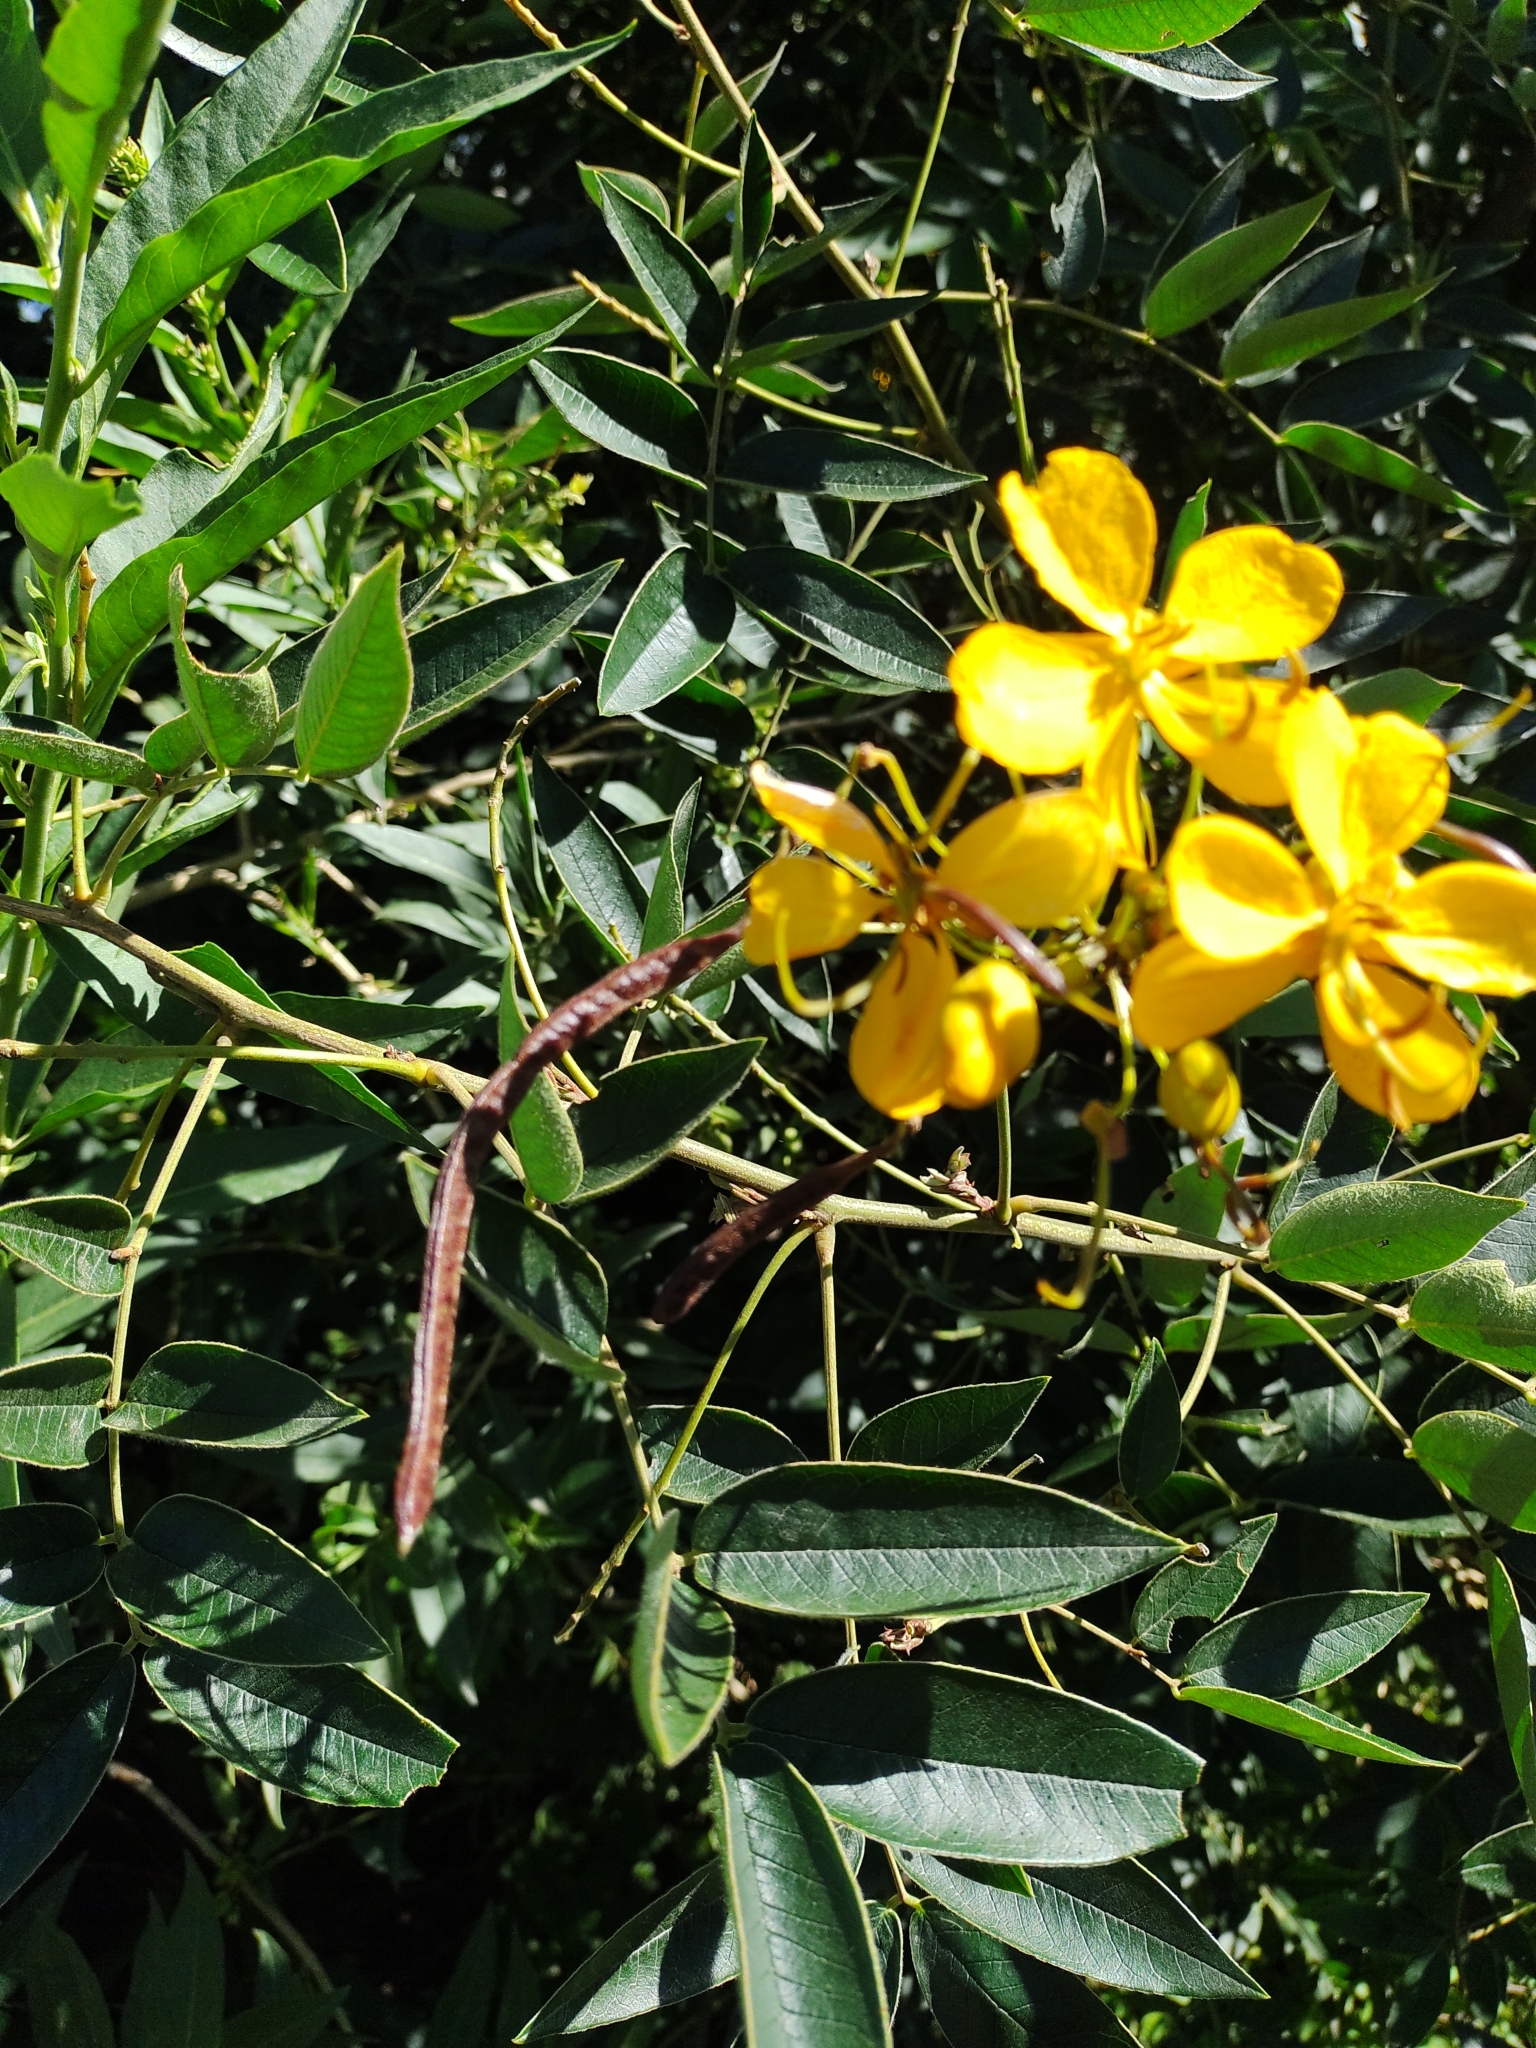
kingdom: Plantae
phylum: Tracheophyta
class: Magnoliopsida
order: Fabales
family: Fabaceae
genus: Senna
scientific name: Senna burkartiana
